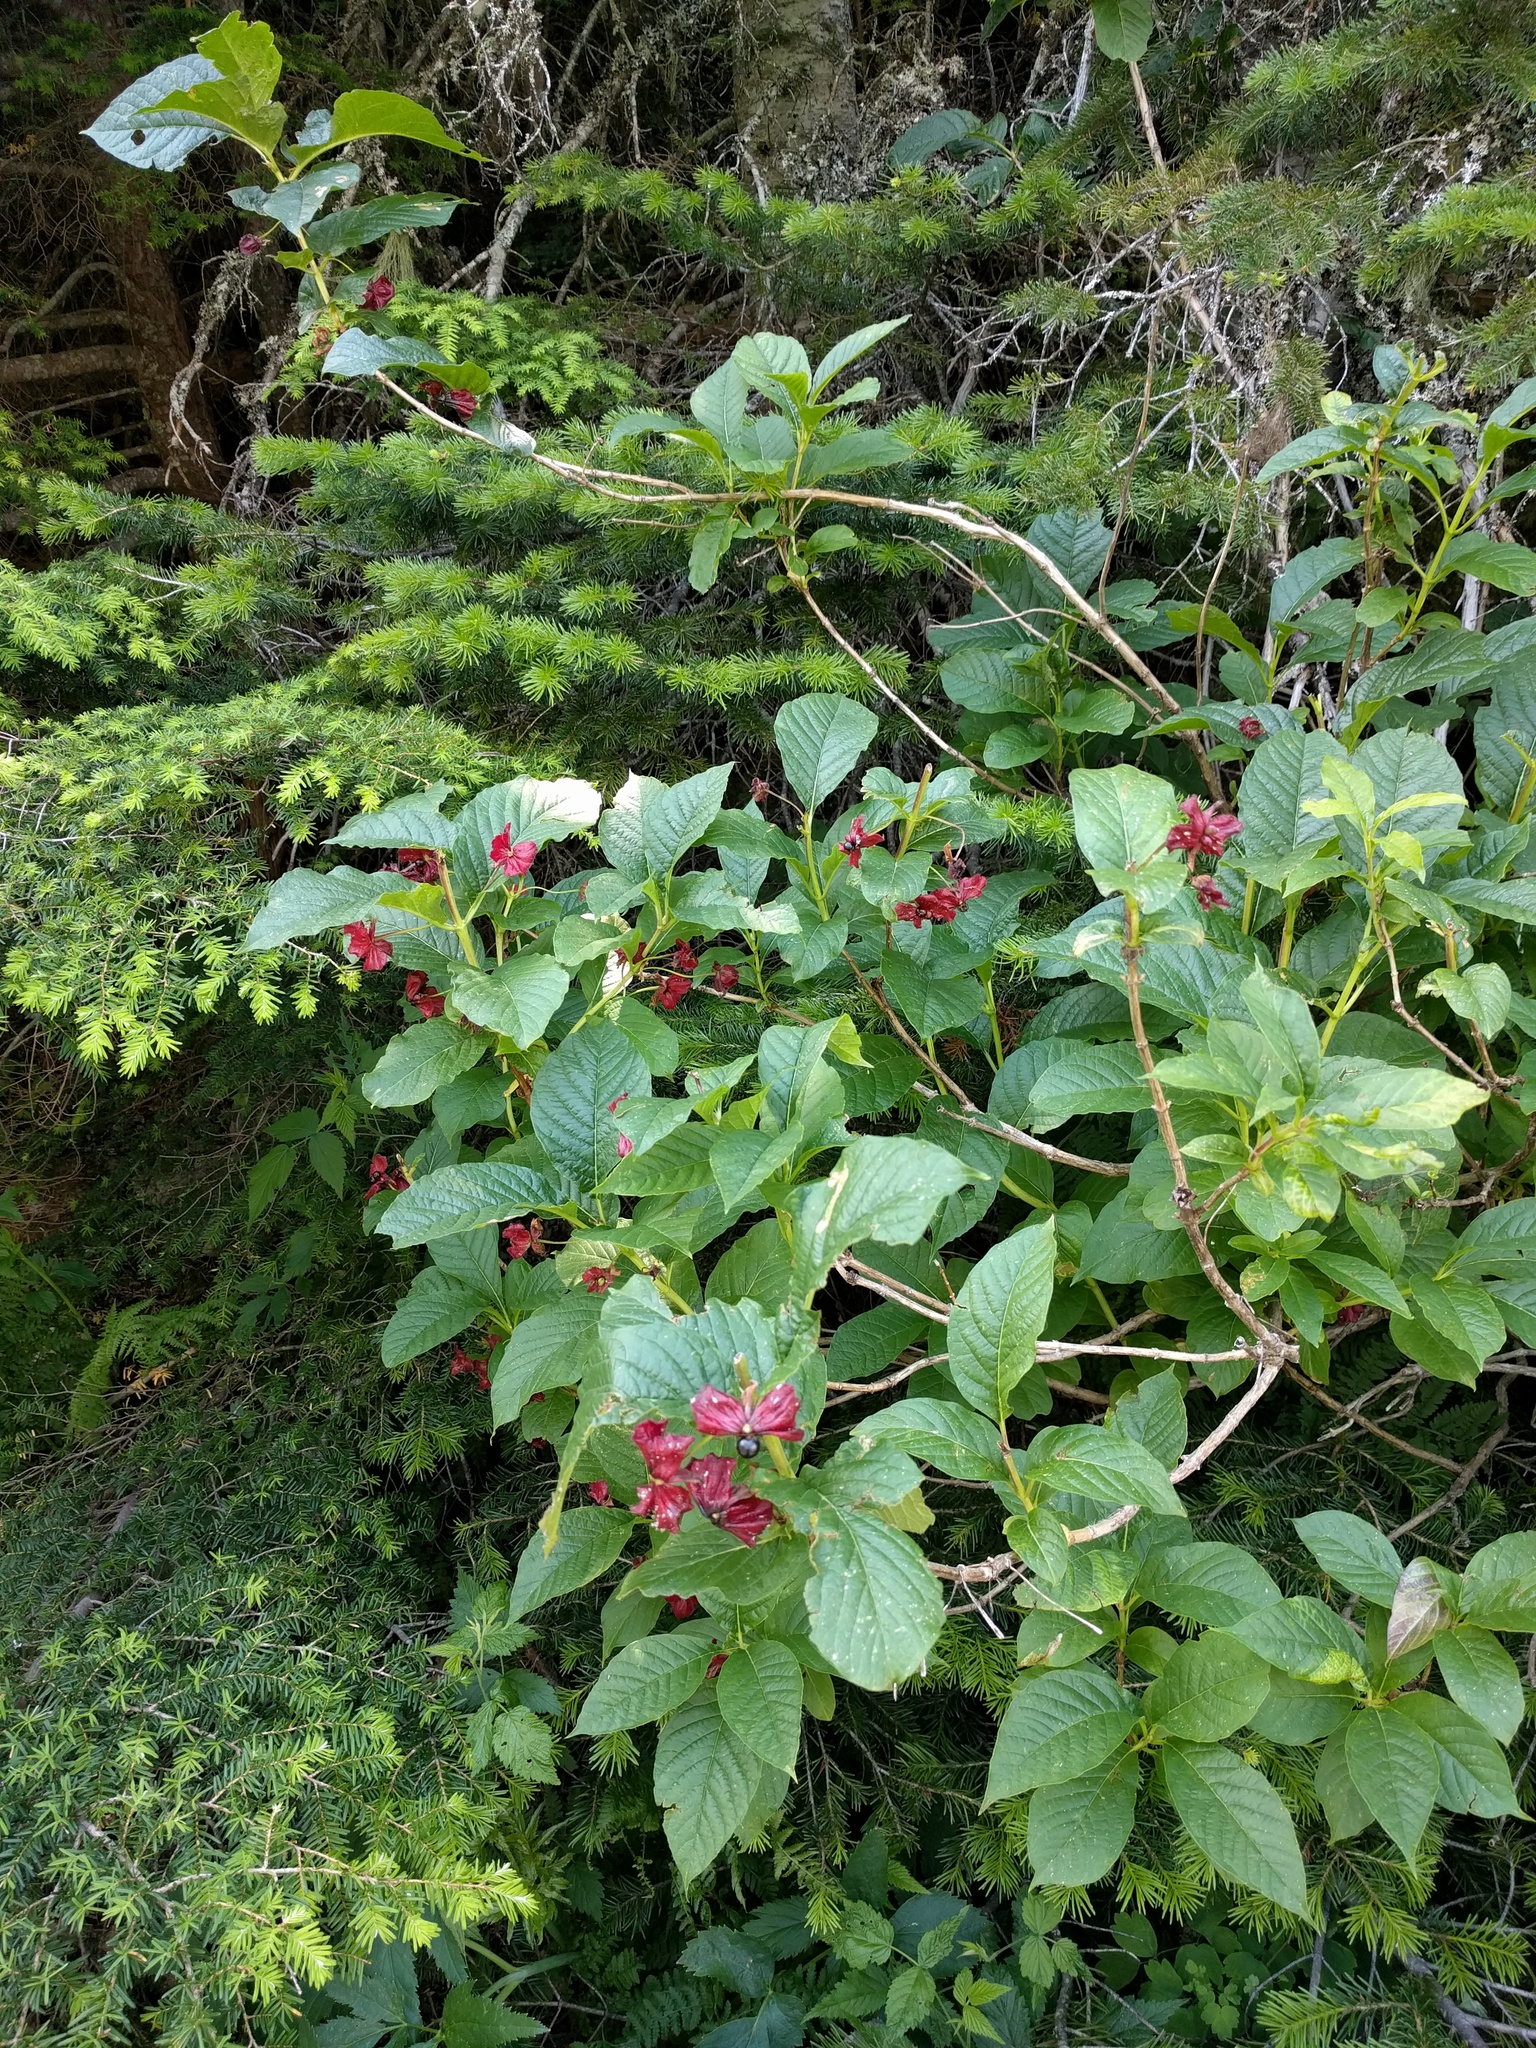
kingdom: Plantae
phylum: Tracheophyta
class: Magnoliopsida
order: Dipsacales
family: Caprifoliaceae
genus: Lonicera
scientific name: Lonicera involucrata
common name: Californian honeysuckle
